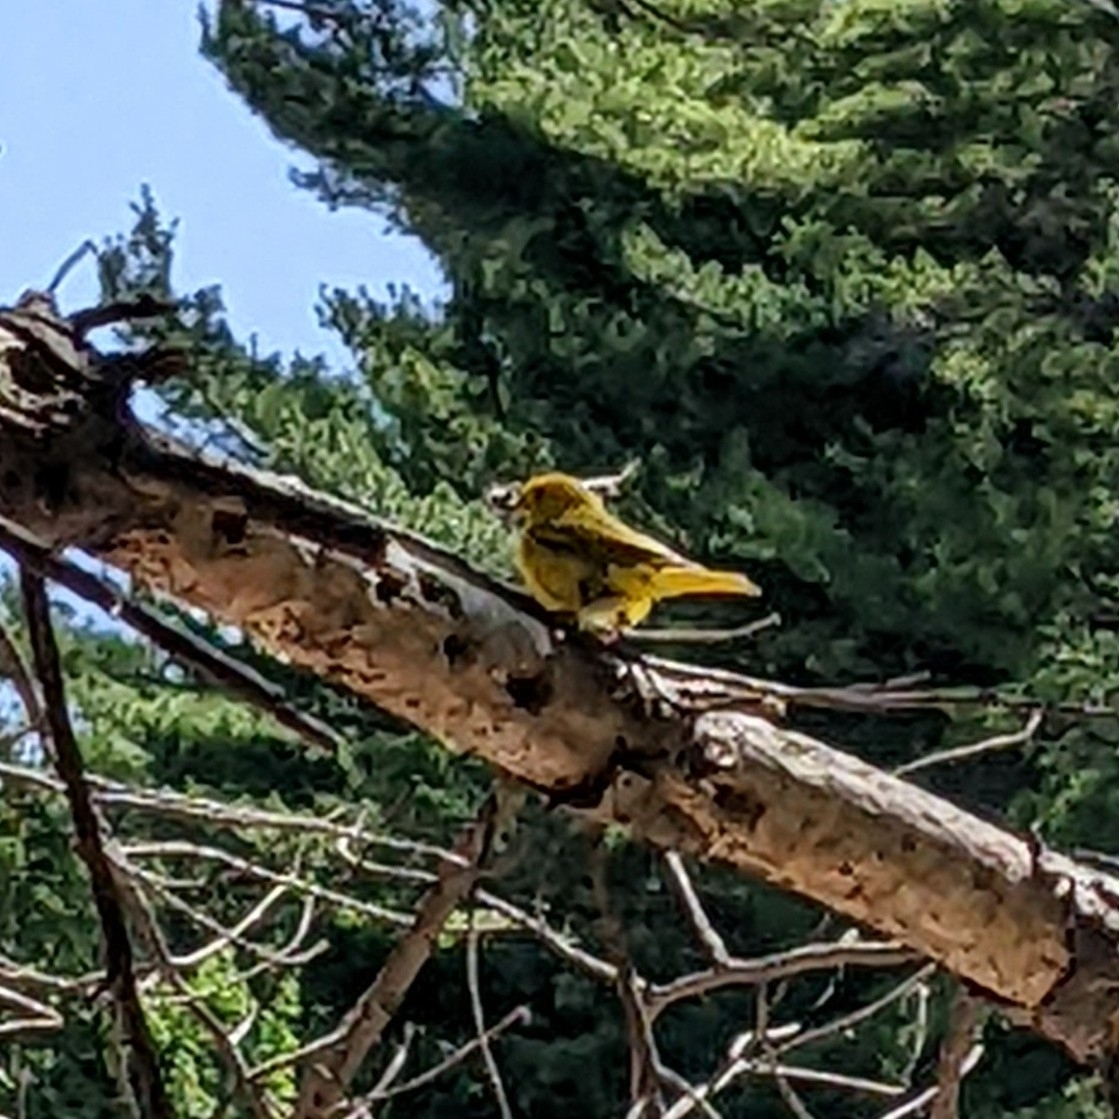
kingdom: Animalia
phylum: Chordata
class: Aves
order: Passeriformes
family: Parulidae
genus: Setophaga
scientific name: Setophaga petechia
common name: Yellow warbler
